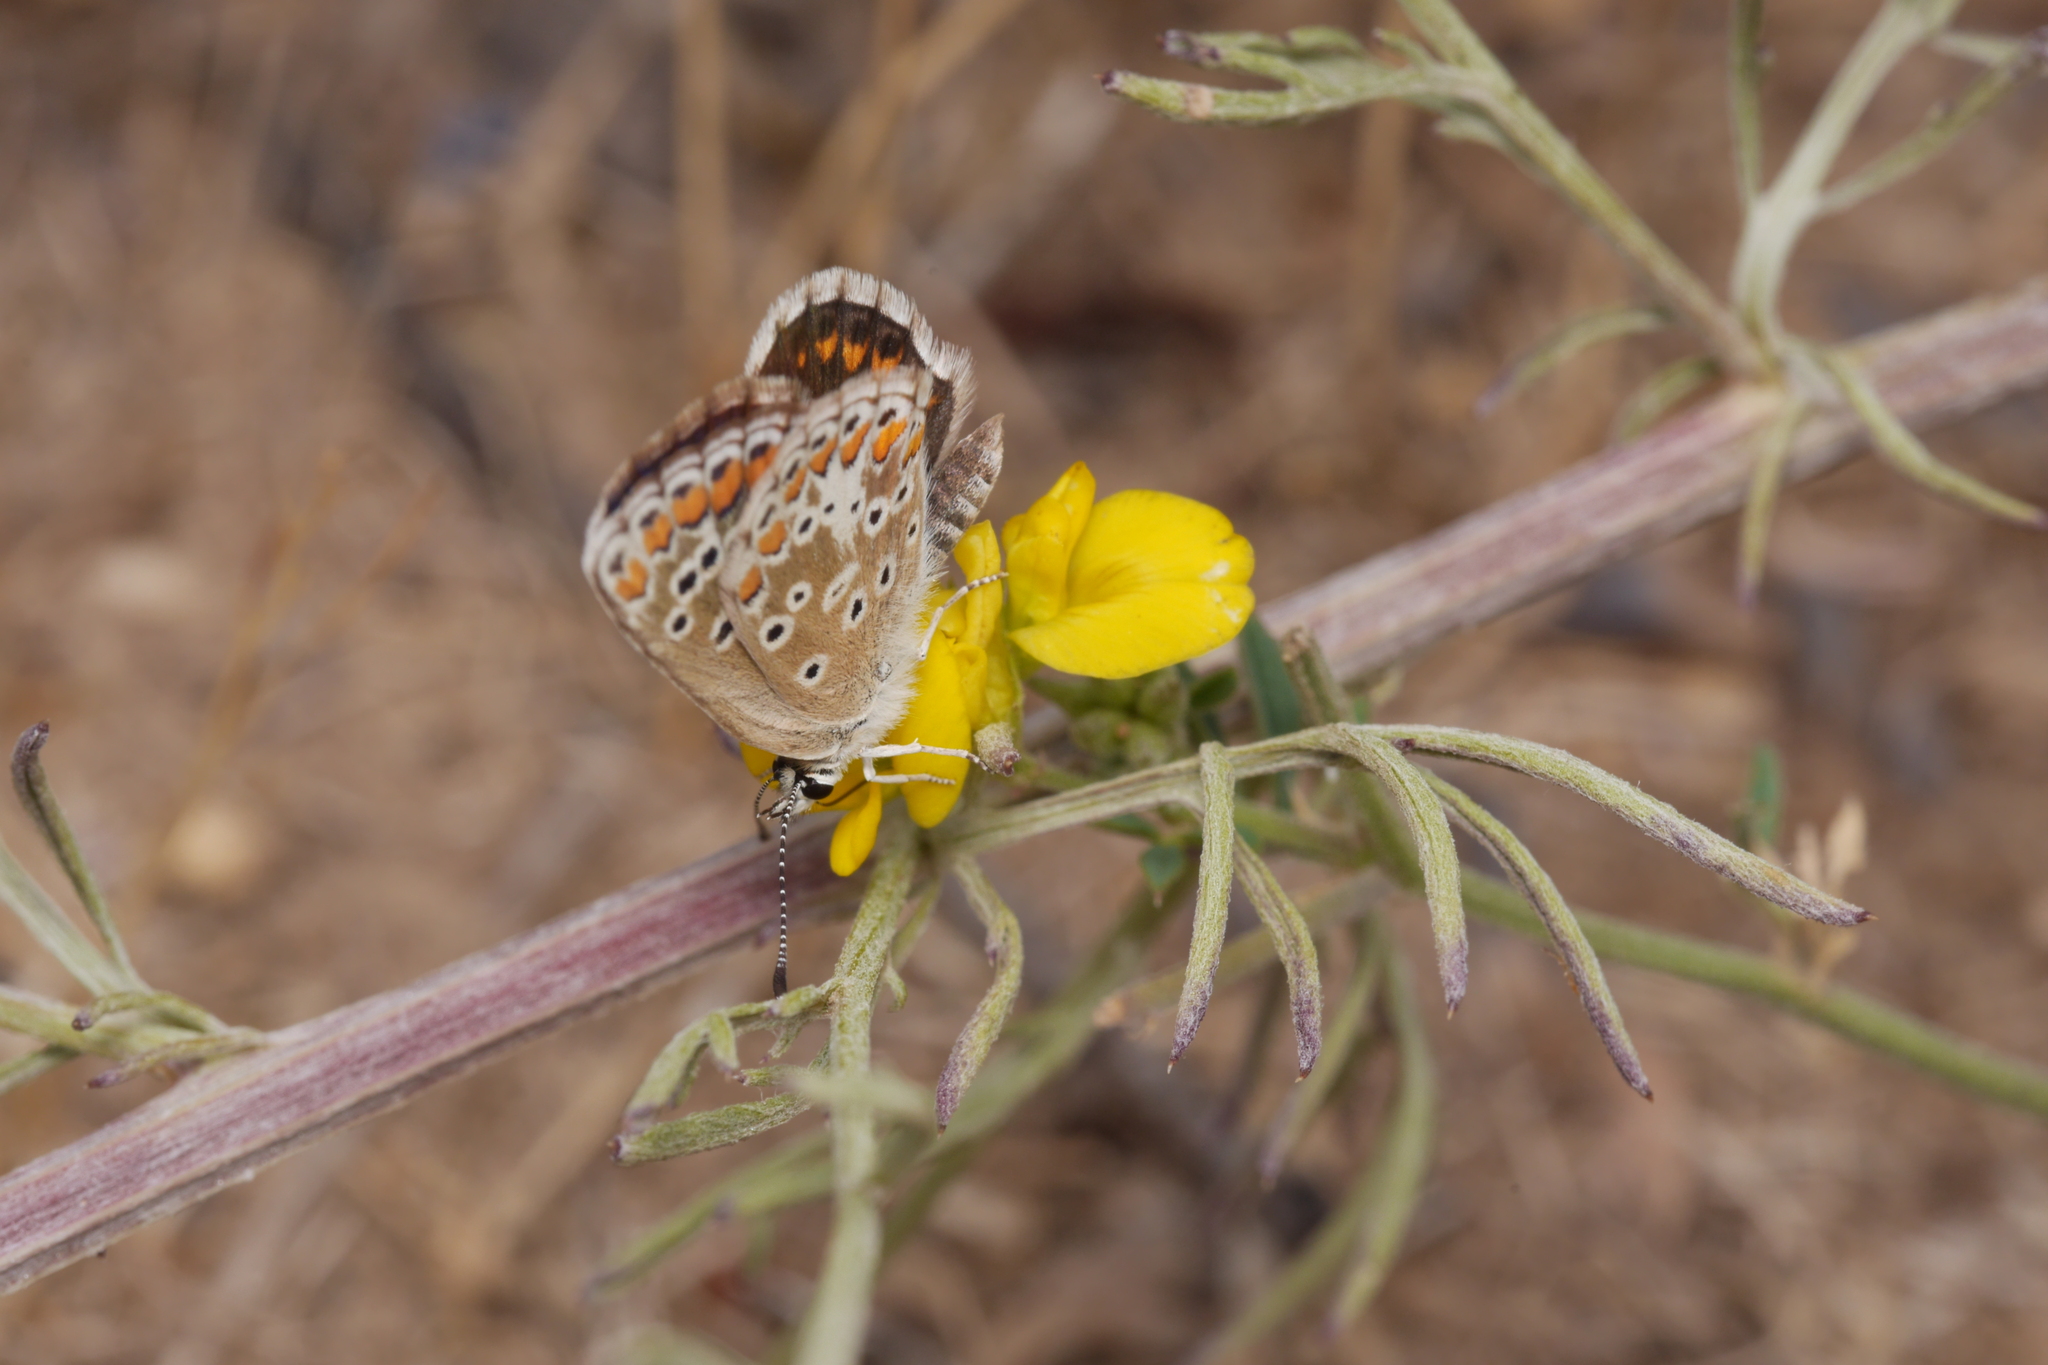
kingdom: Animalia
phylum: Arthropoda
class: Insecta
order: Lepidoptera
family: Lycaenidae
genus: Aricia
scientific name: Aricia agestis
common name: Brown argus
